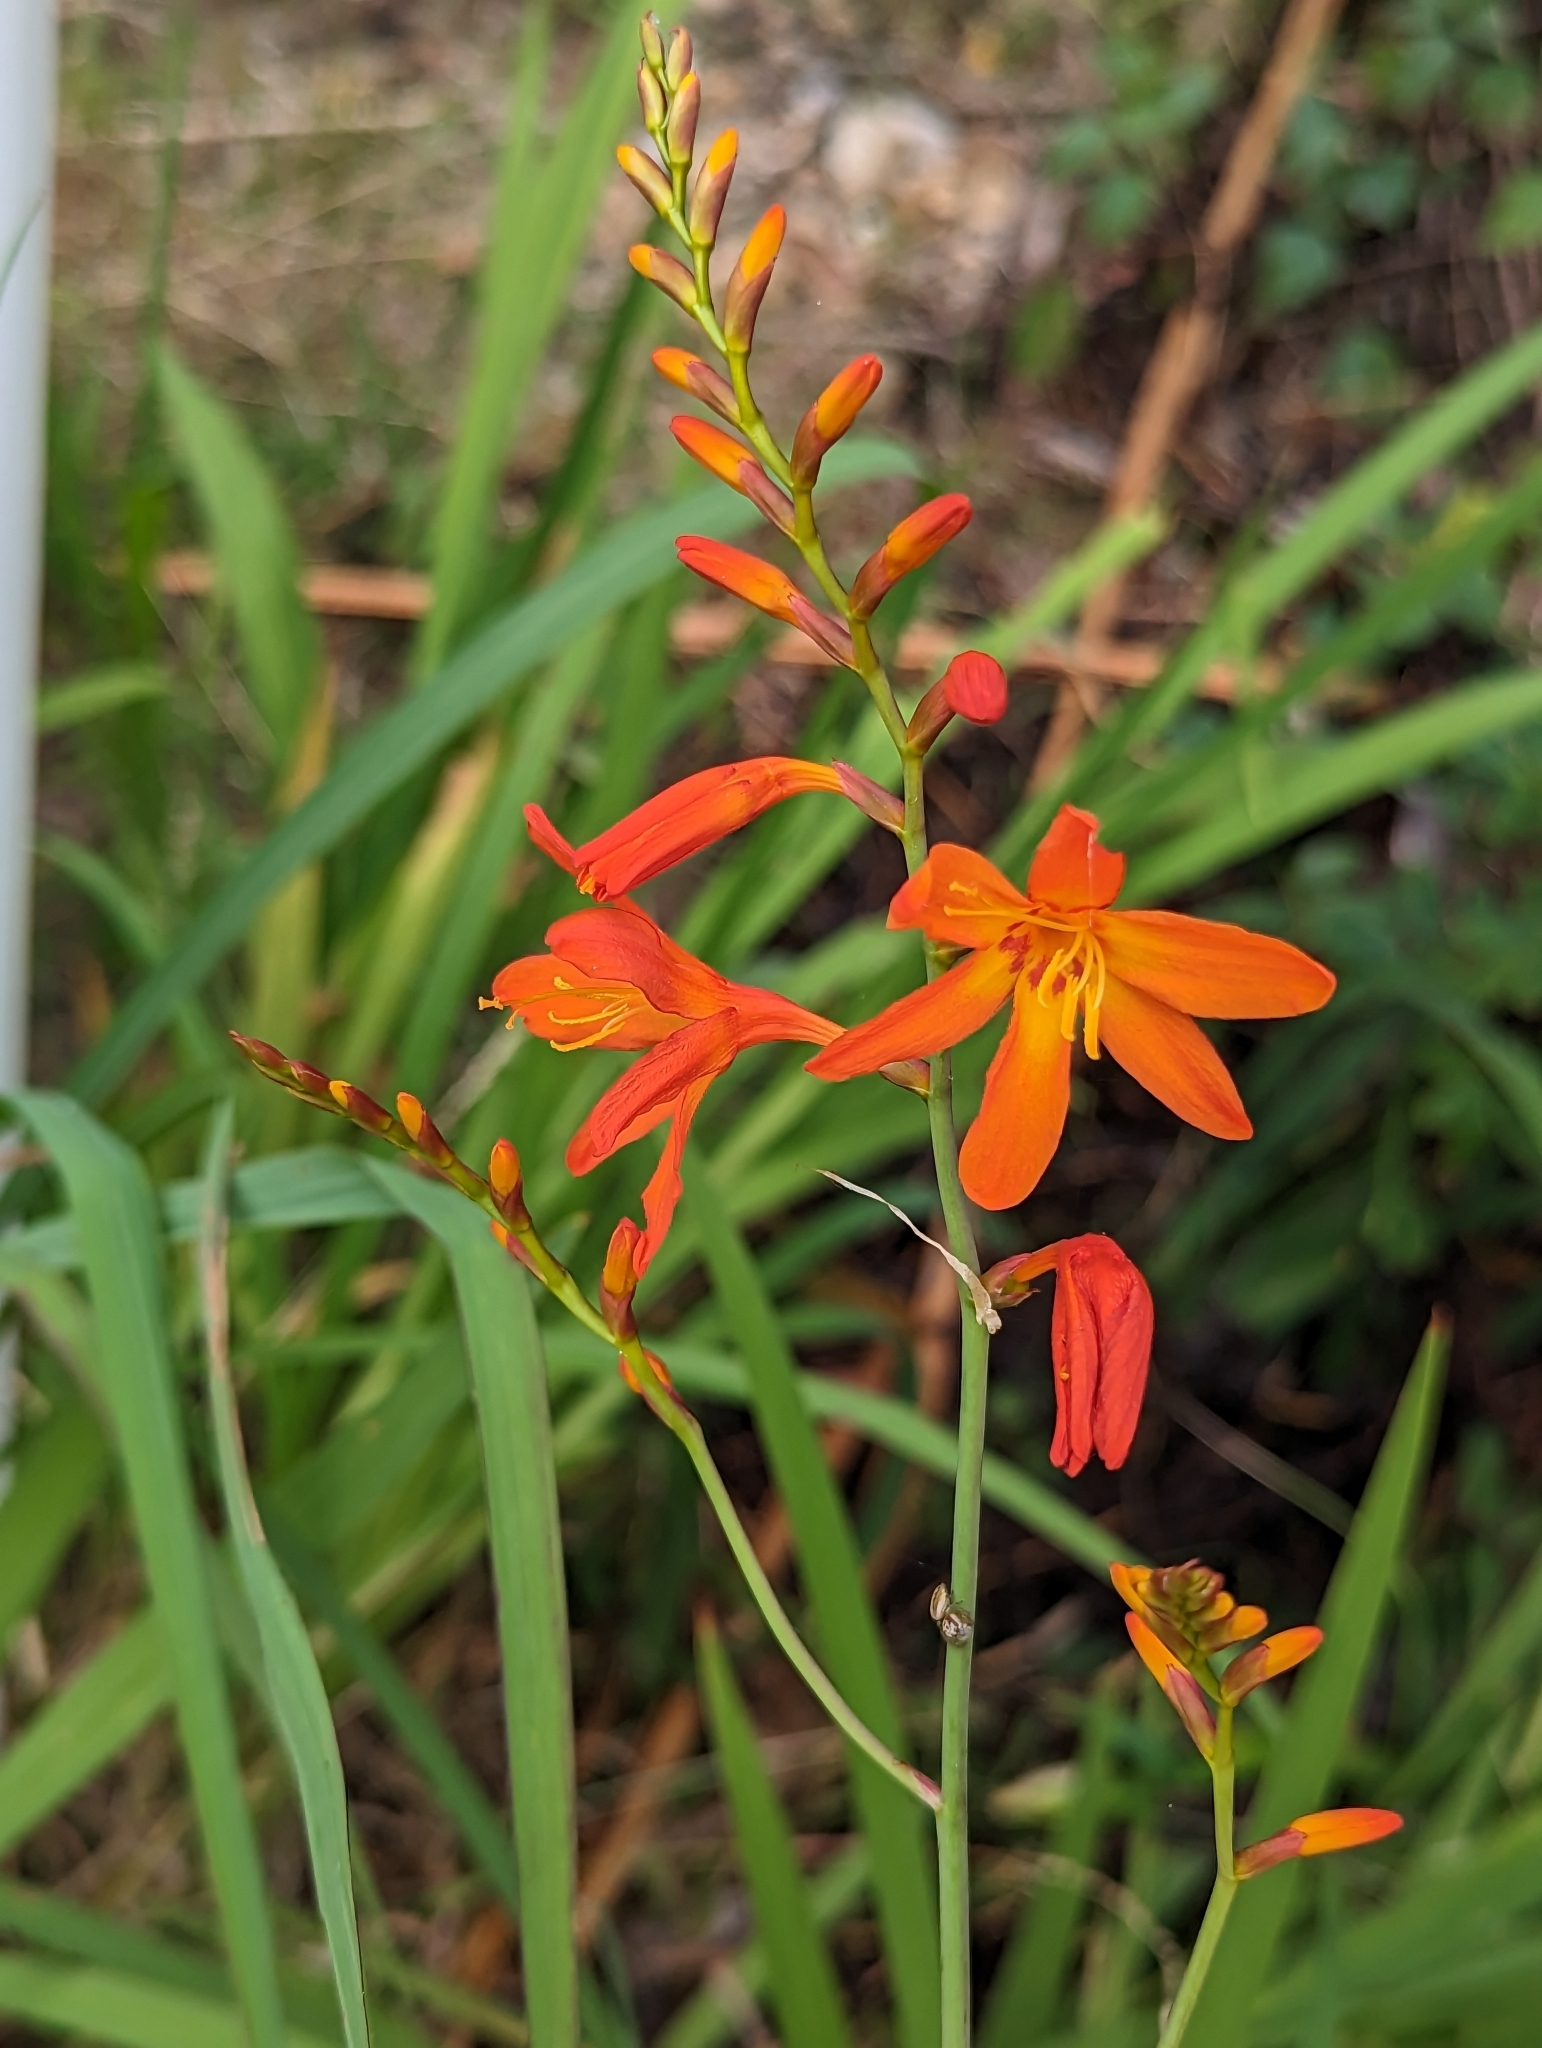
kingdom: Plantae
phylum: Tracheophyta
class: Liliopsida
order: Asparagales
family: Iridaceae
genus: Crocosmia
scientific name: Crocosmia crocosmiiflora
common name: Montbretia
